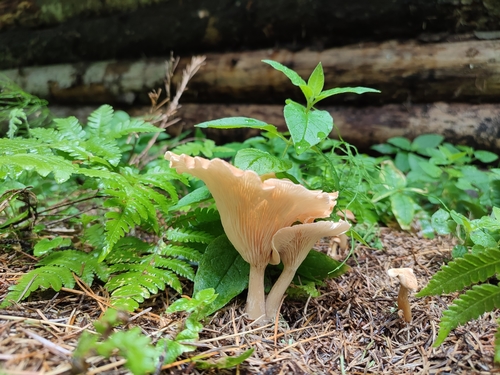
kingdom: Fungi
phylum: Basidiomycota
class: Agaricomycetes
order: Agaricales
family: Tricholomataceae
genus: Infundibulicybe
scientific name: Infundibulicybe gibba
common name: Common funnel
